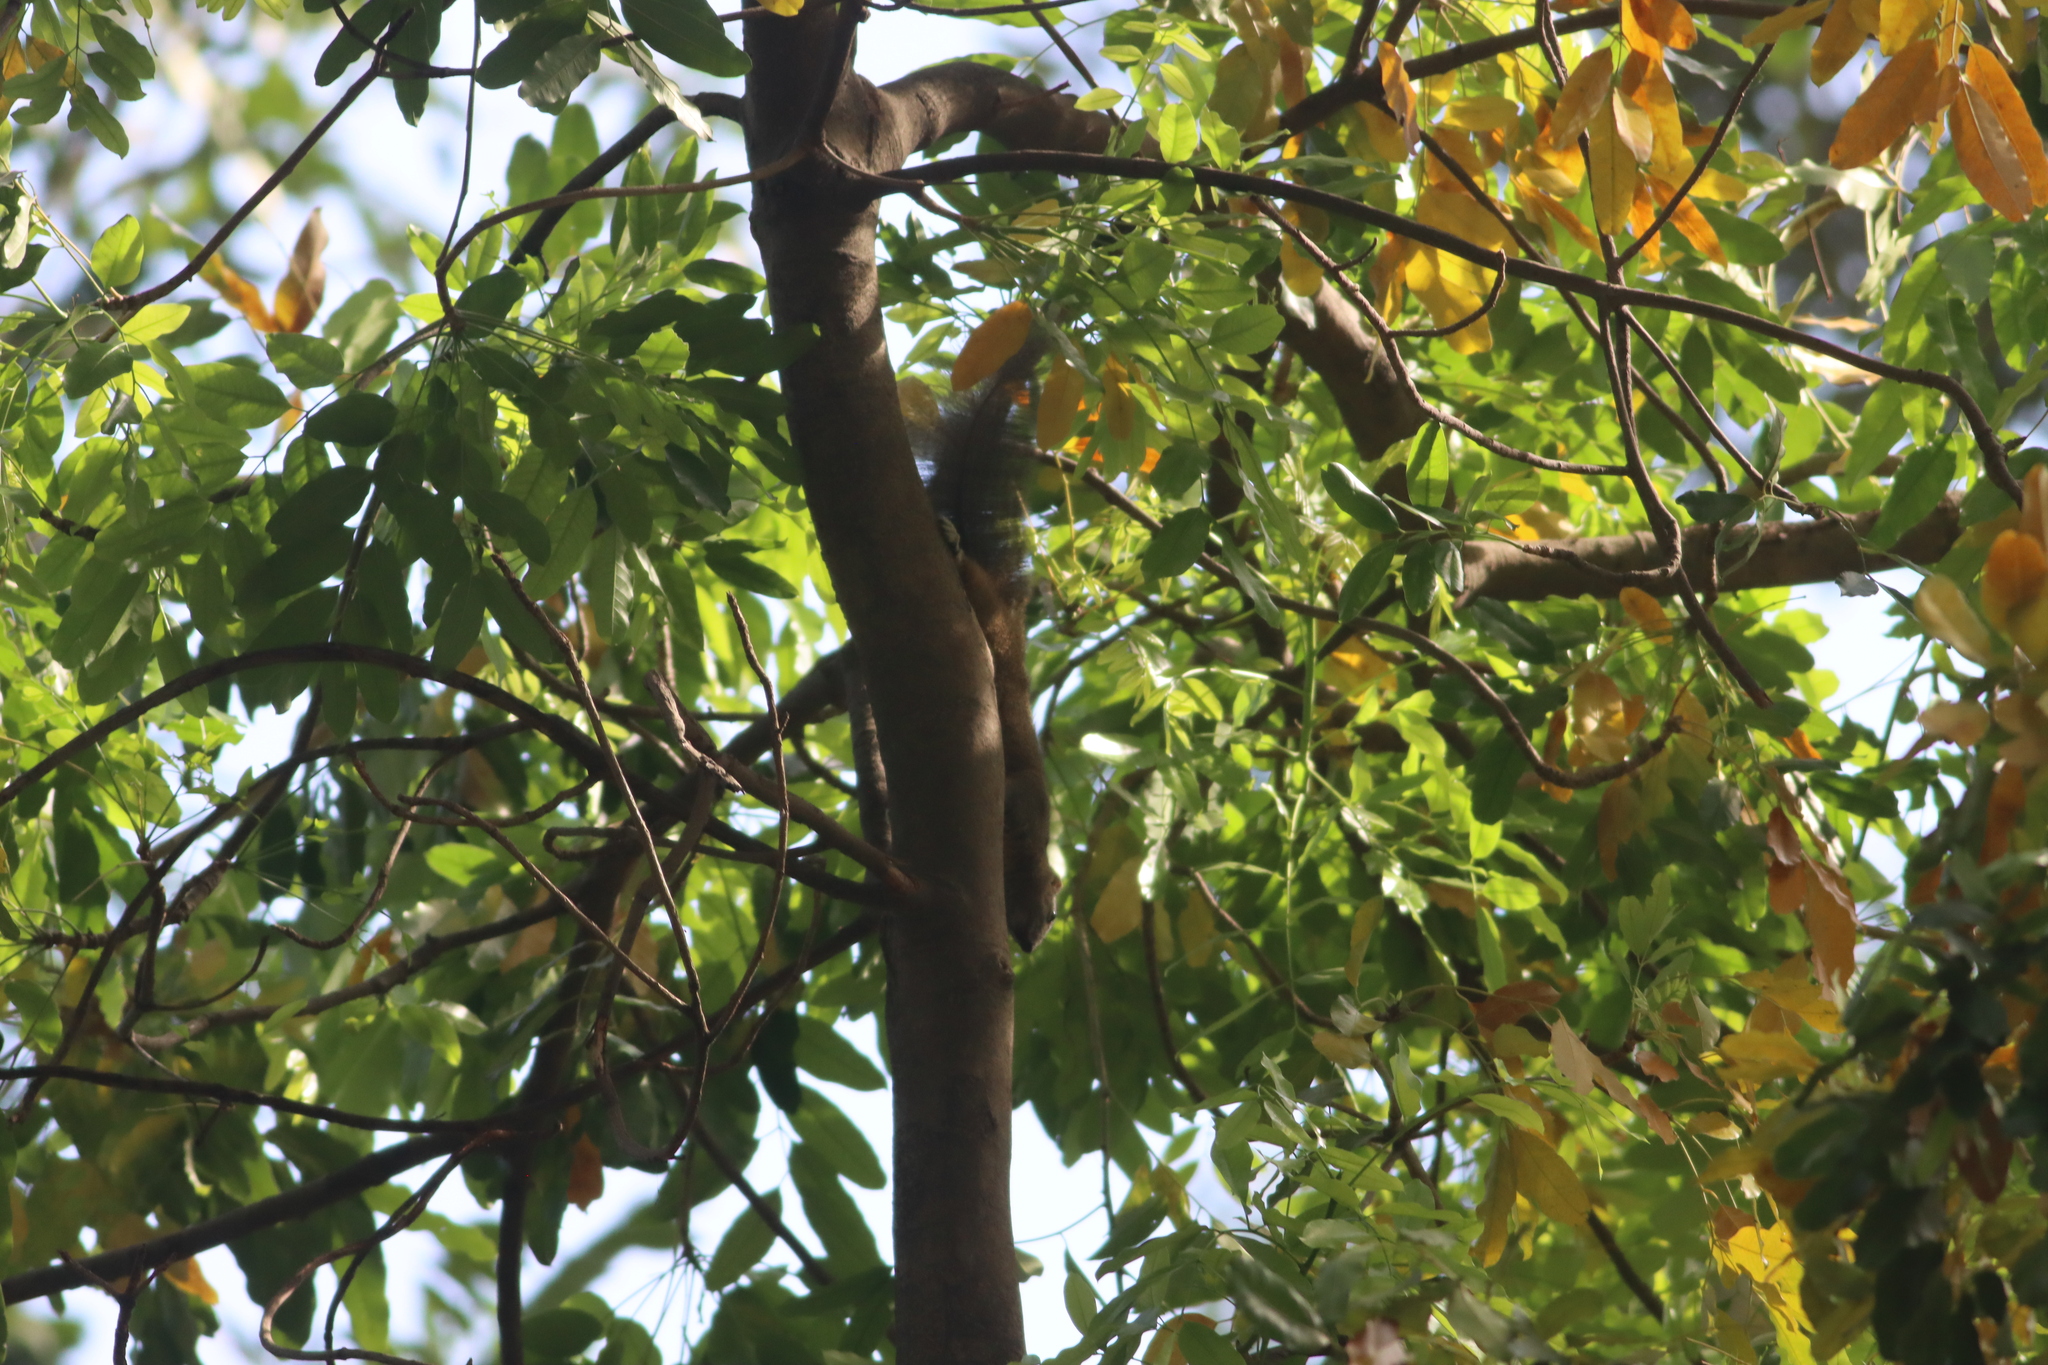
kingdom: Animalia
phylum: Chordata
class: Mammalia
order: Rodentia
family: Sciuridae
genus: Callosciurus
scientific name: Callosciurus erythraeus
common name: Pallas's squirrel
